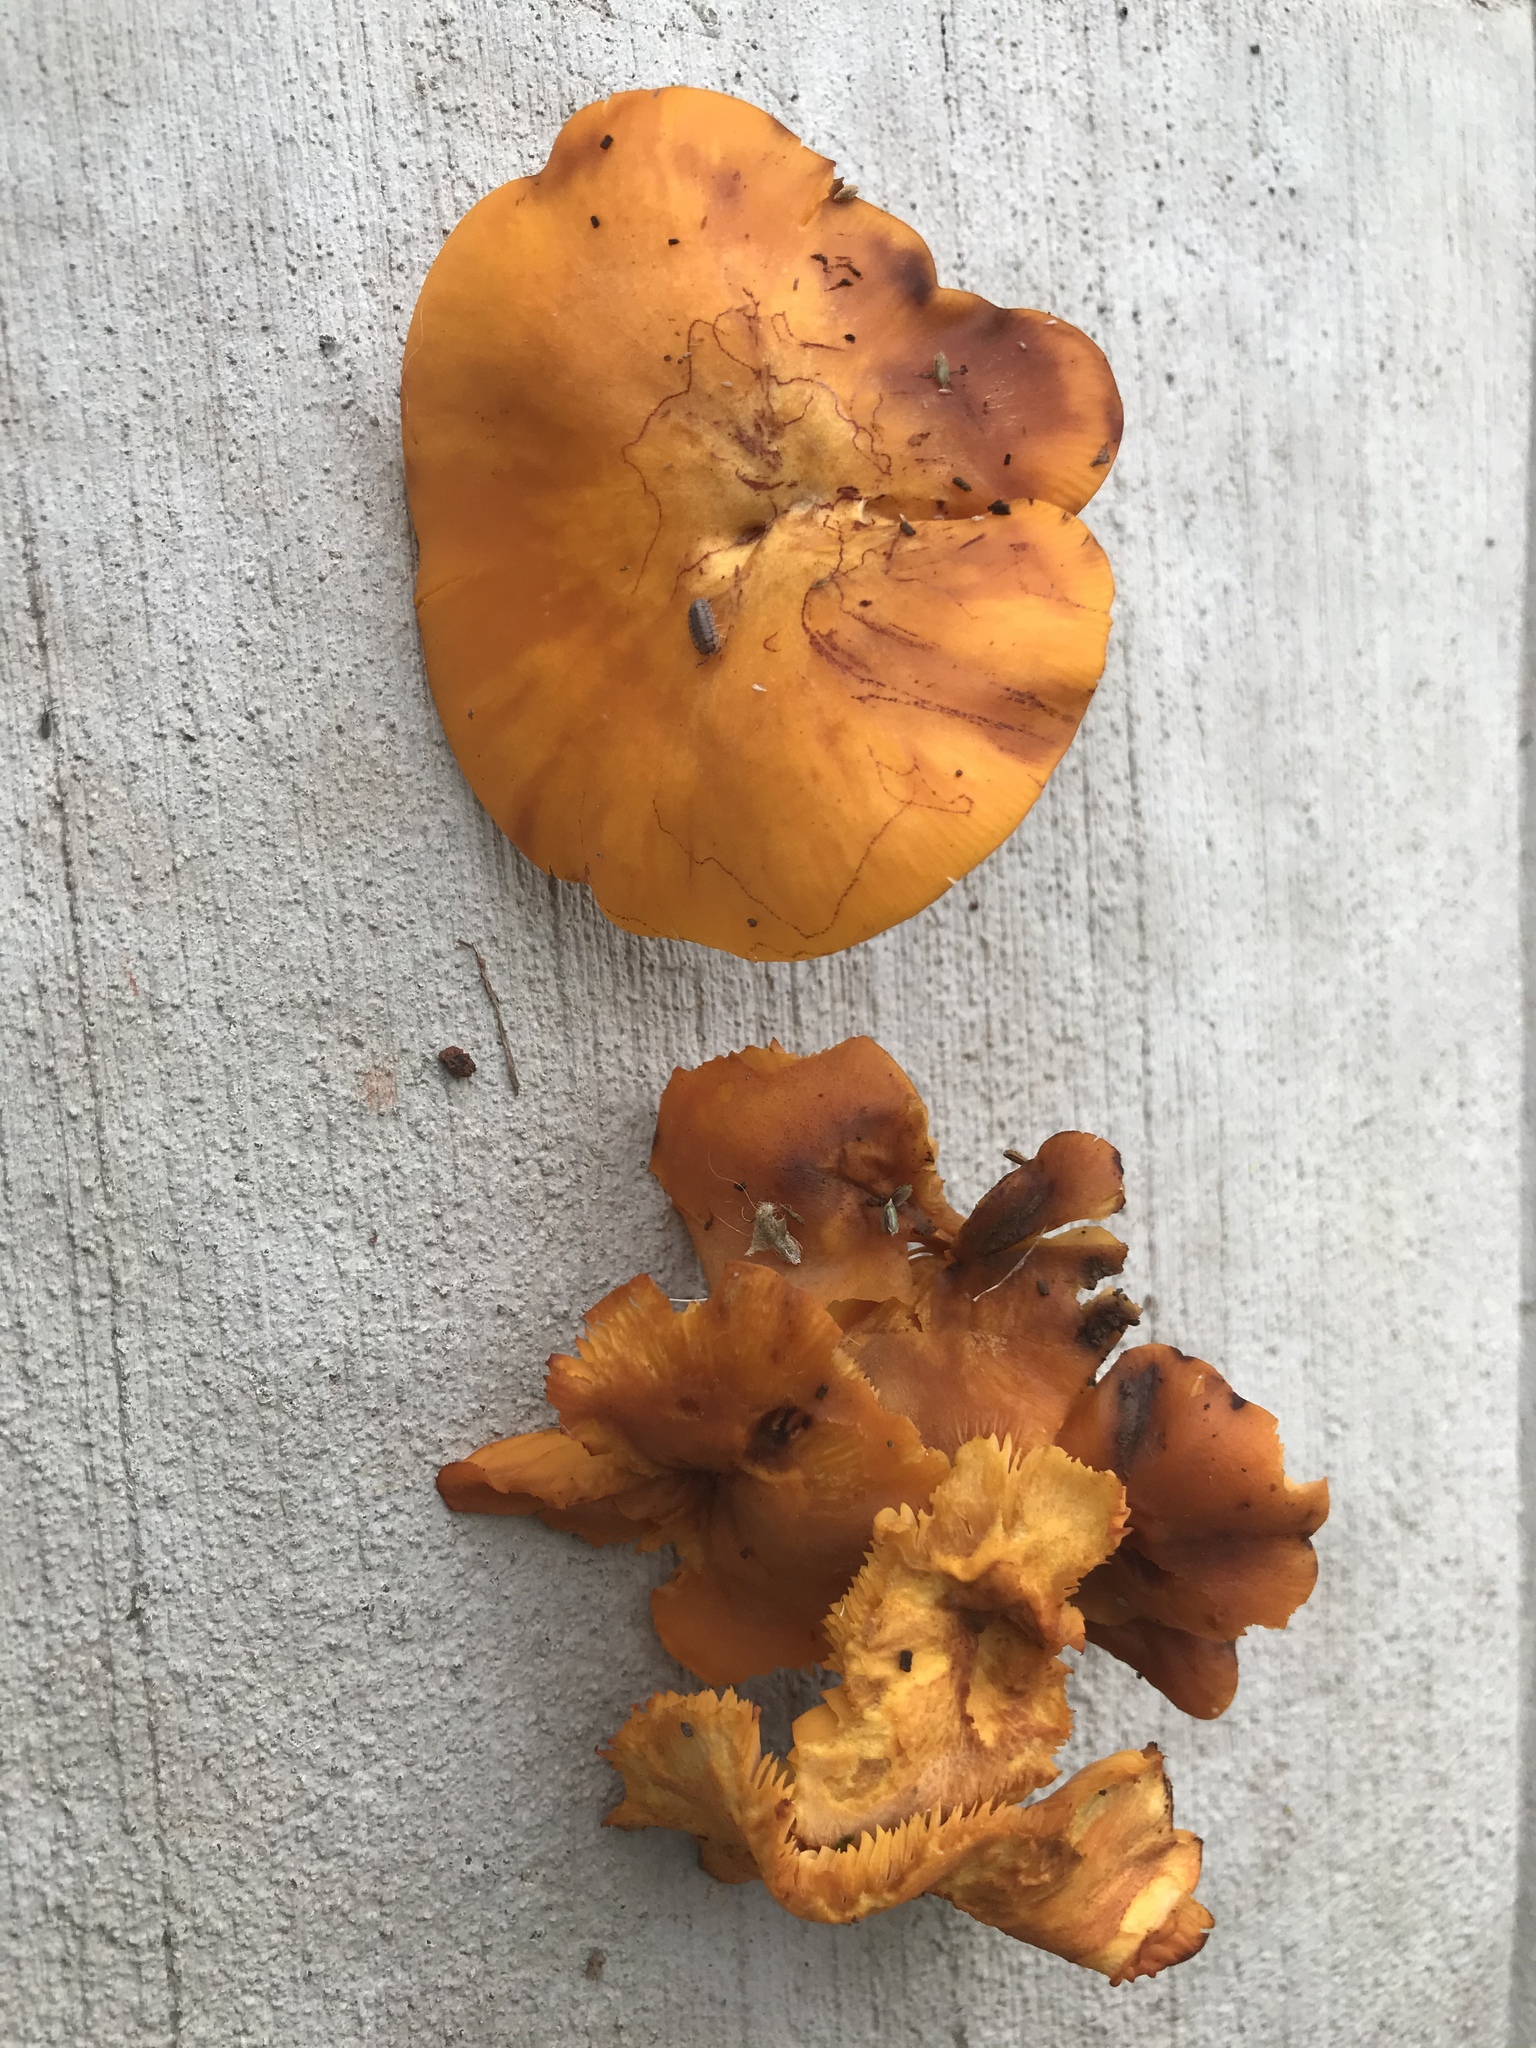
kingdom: Fungi
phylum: Basidiomycota
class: Agaricomycetes
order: Agaricales
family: Omphalotaceae
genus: Omphalotus
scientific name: Omphalotus illudens
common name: Jack o lantern
